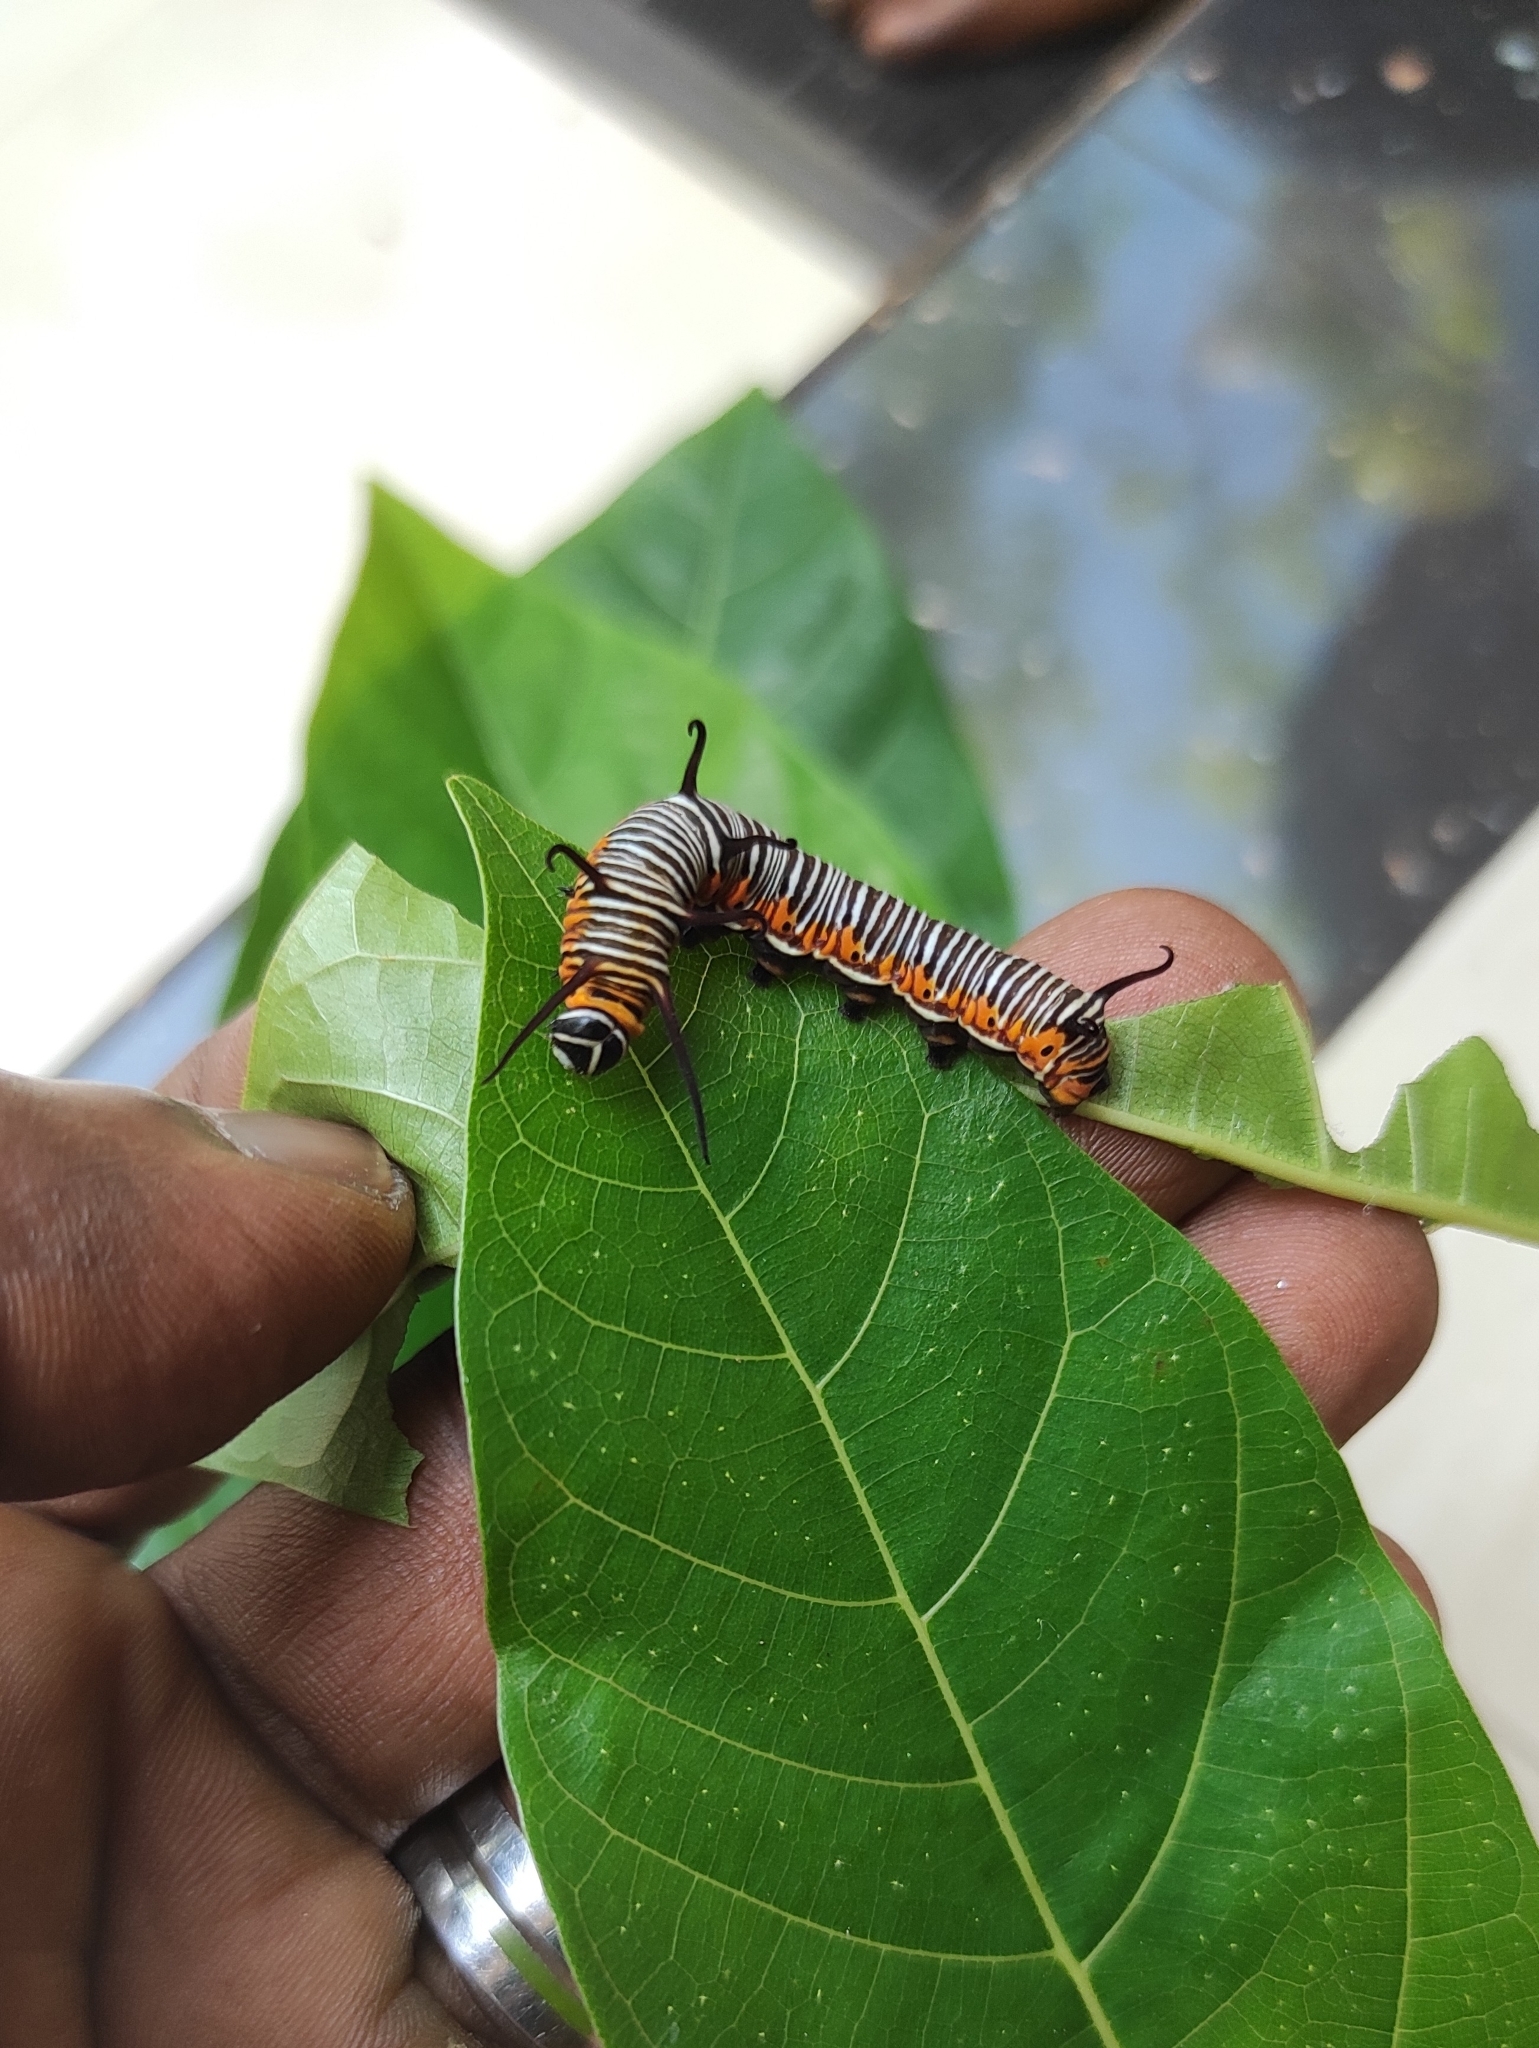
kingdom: Animalia
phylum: Arthropoda
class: Insecta
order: Lepidoptera
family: Nymphalidae
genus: Euploea
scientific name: Euploea core
